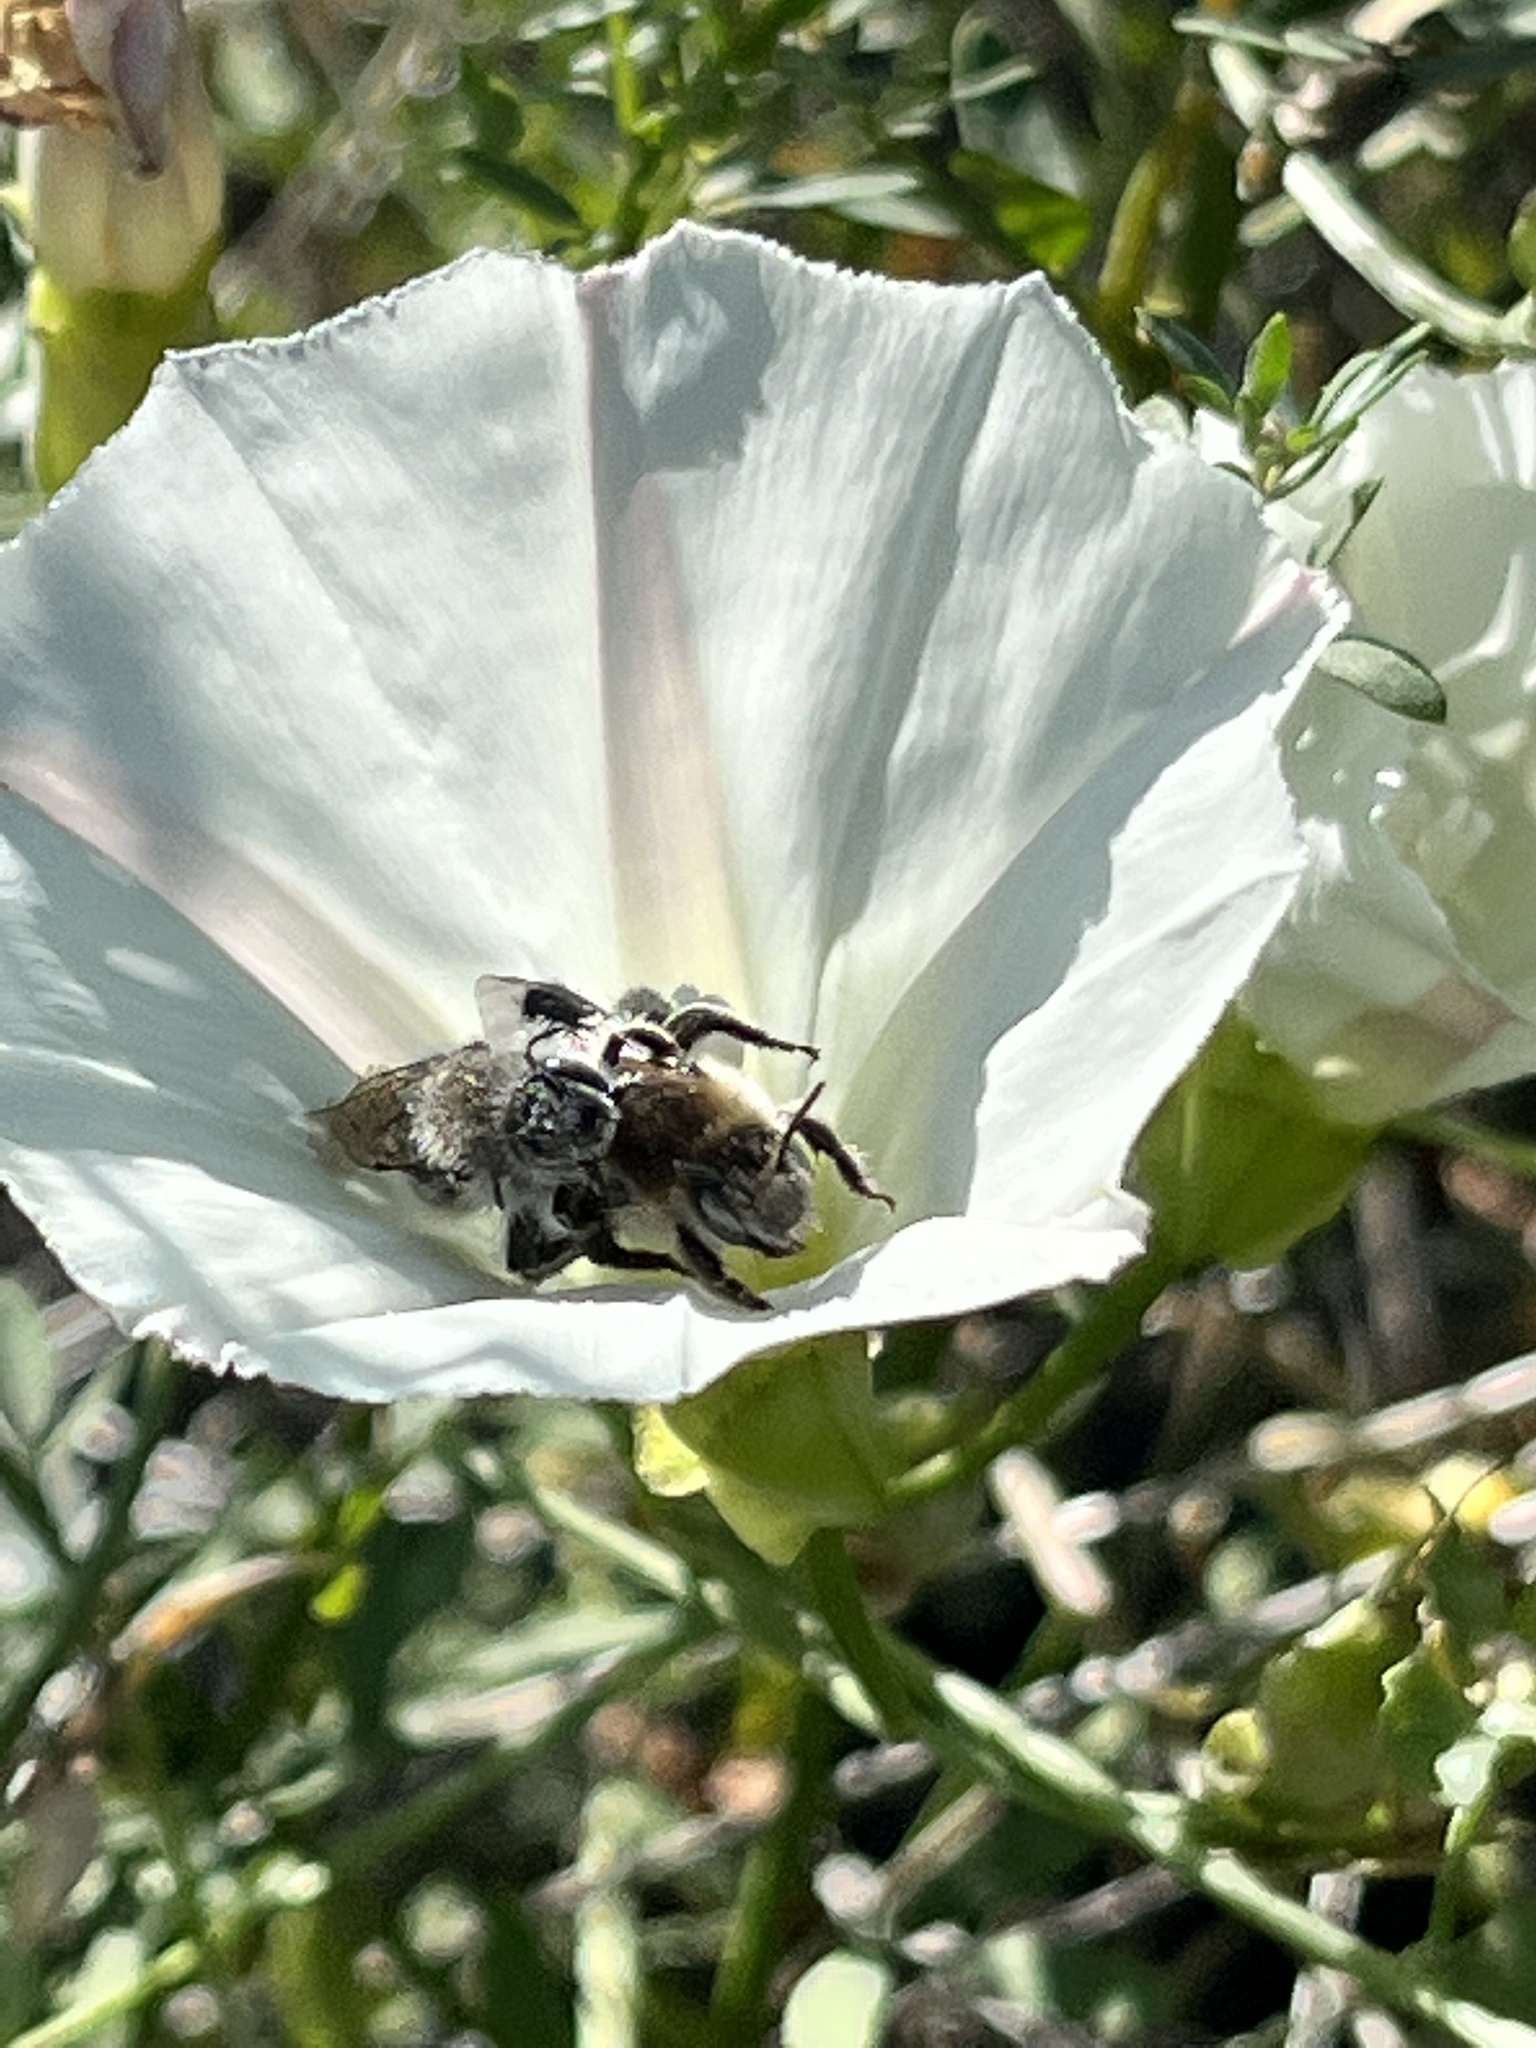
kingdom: Animalia
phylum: Arthropoda
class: Insecta
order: Hymenoptera
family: Apidae
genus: Diadasia
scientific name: Diadasia bituberculata
